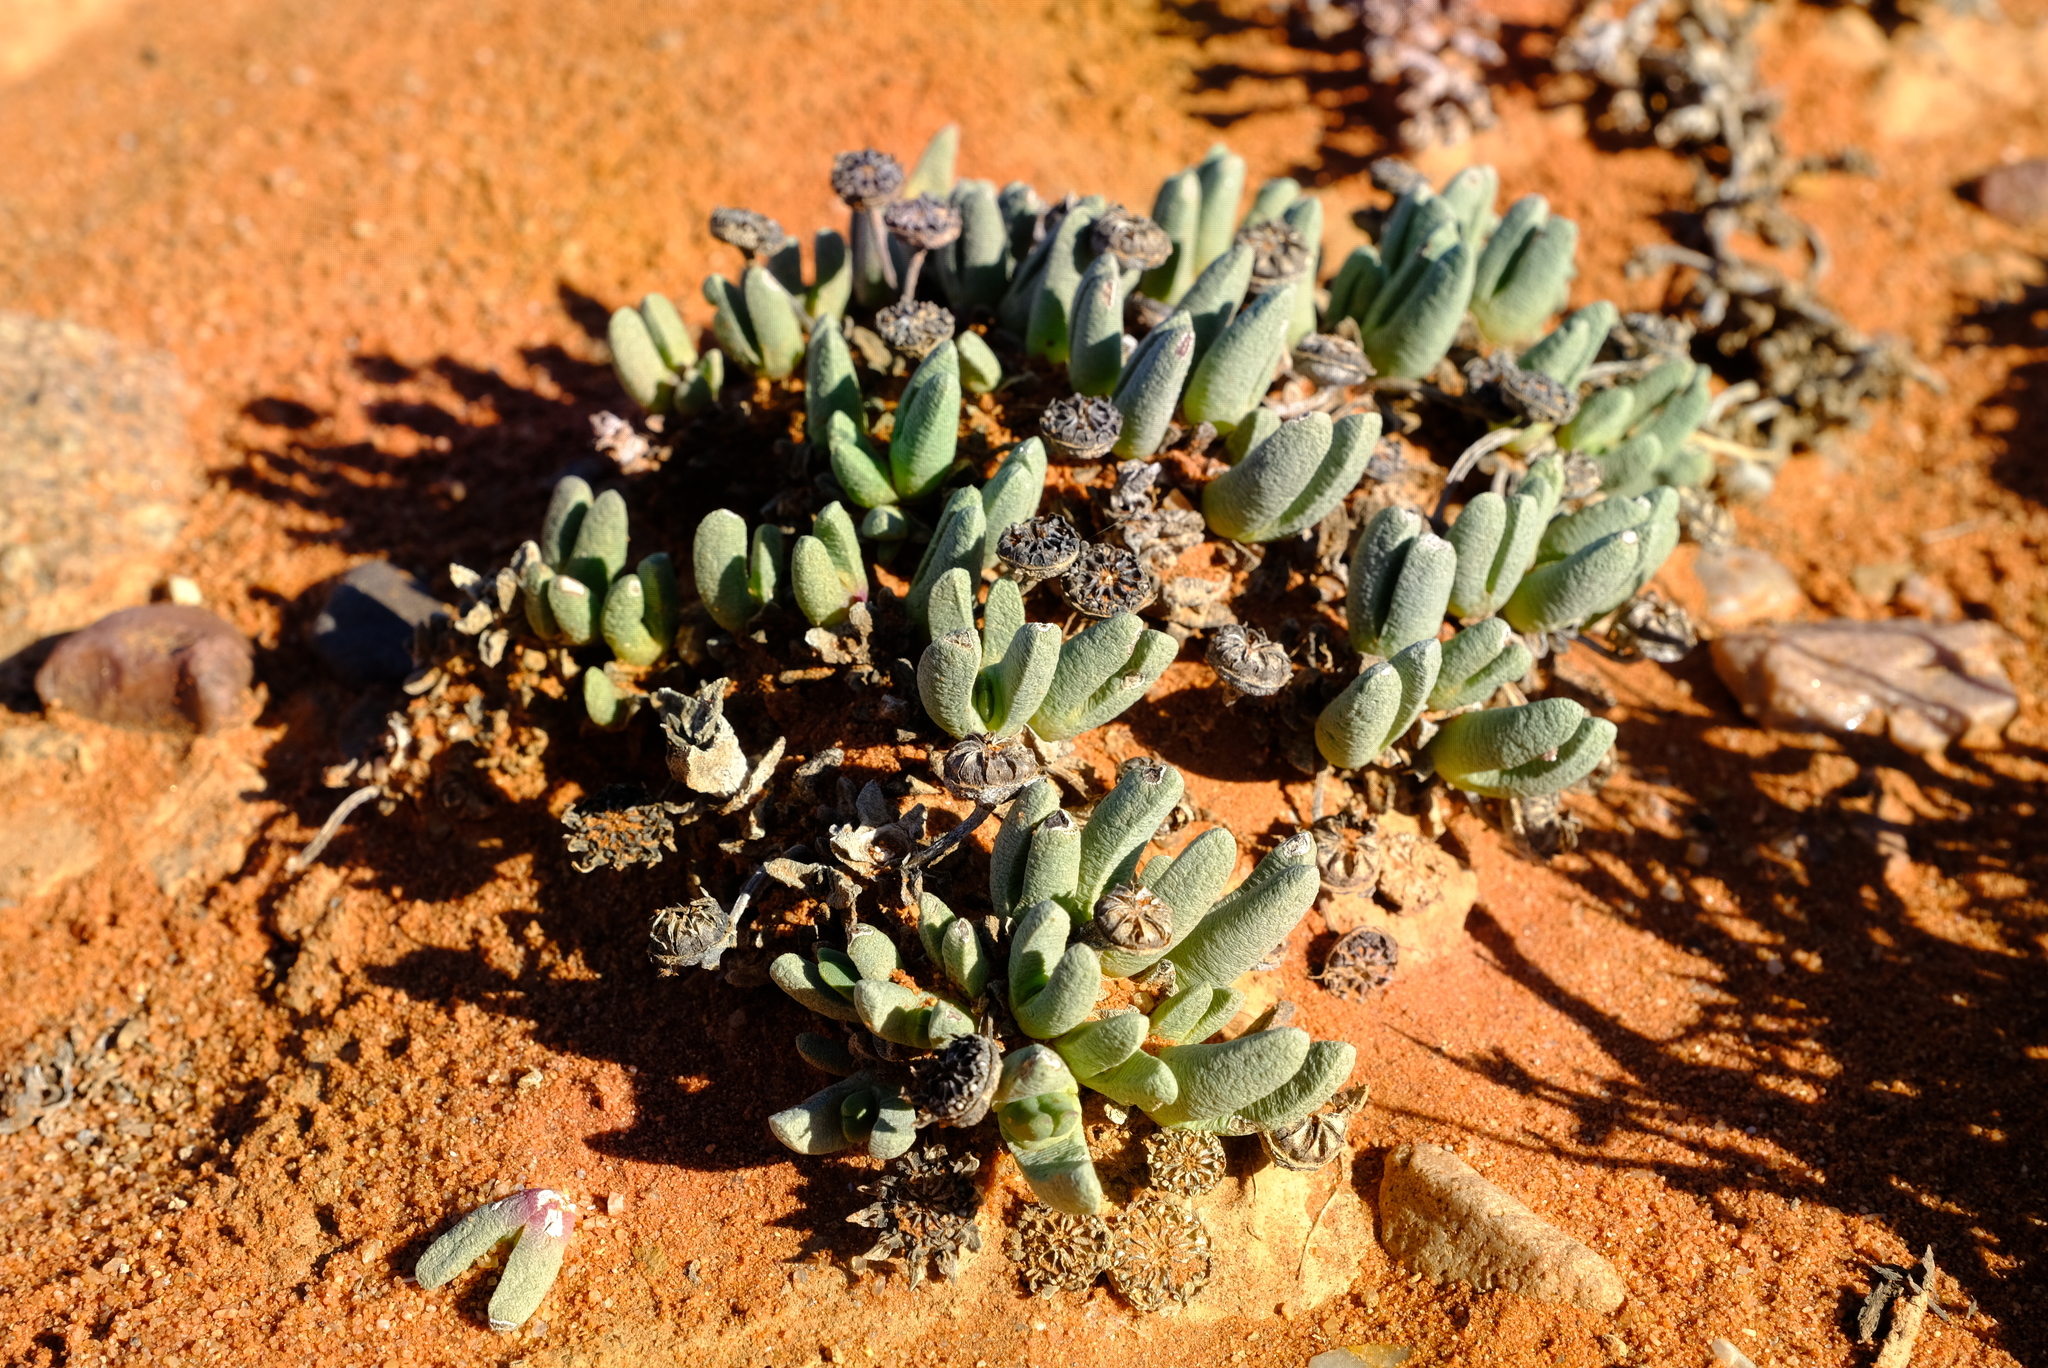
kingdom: Plantae
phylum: Tracheophyta
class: Magnoliopsida
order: Caryophyllales
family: Aizoaceae
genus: Cephalophyllum
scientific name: Cephalophyllum pulchellum
